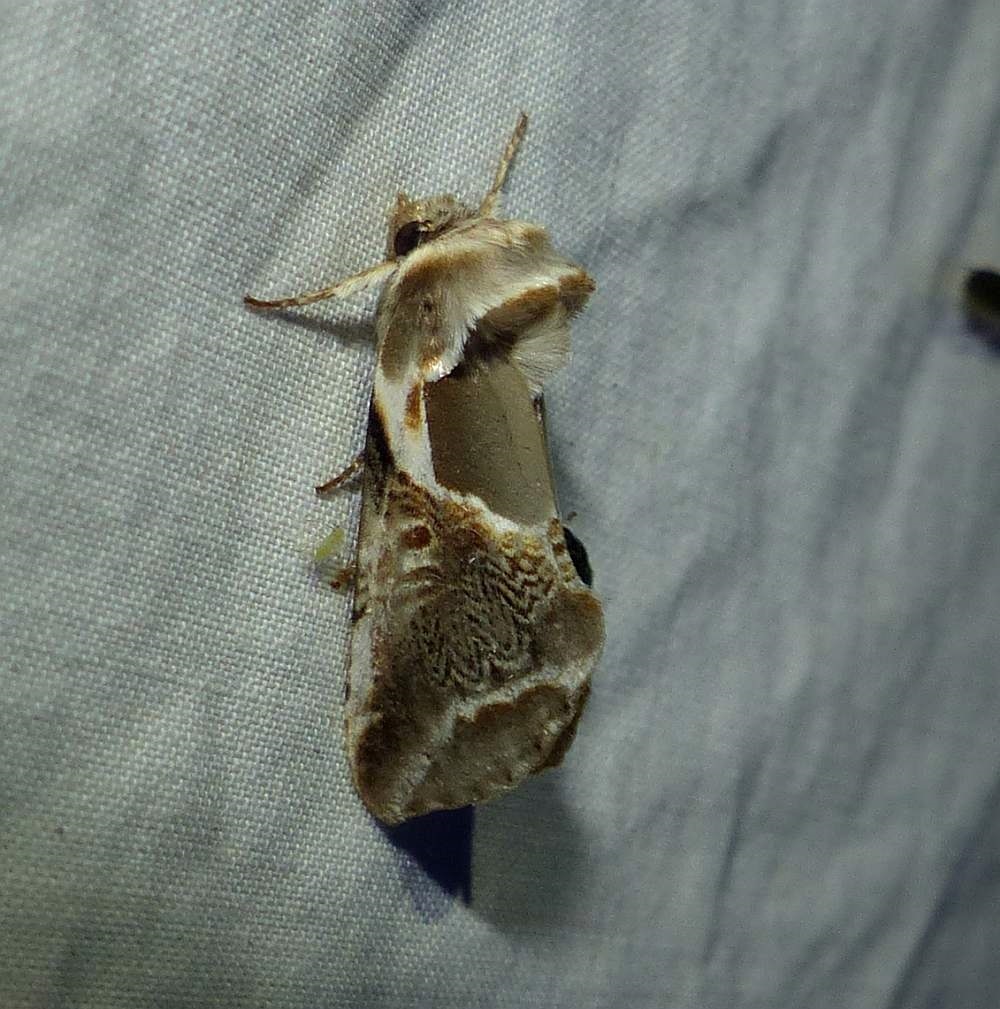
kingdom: Animalia
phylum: Arthropoda
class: Insecta
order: Lepidoptera
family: Drepanidae
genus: Habrosyne
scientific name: Habrosyne scripta
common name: Lettered habrosyne moth
